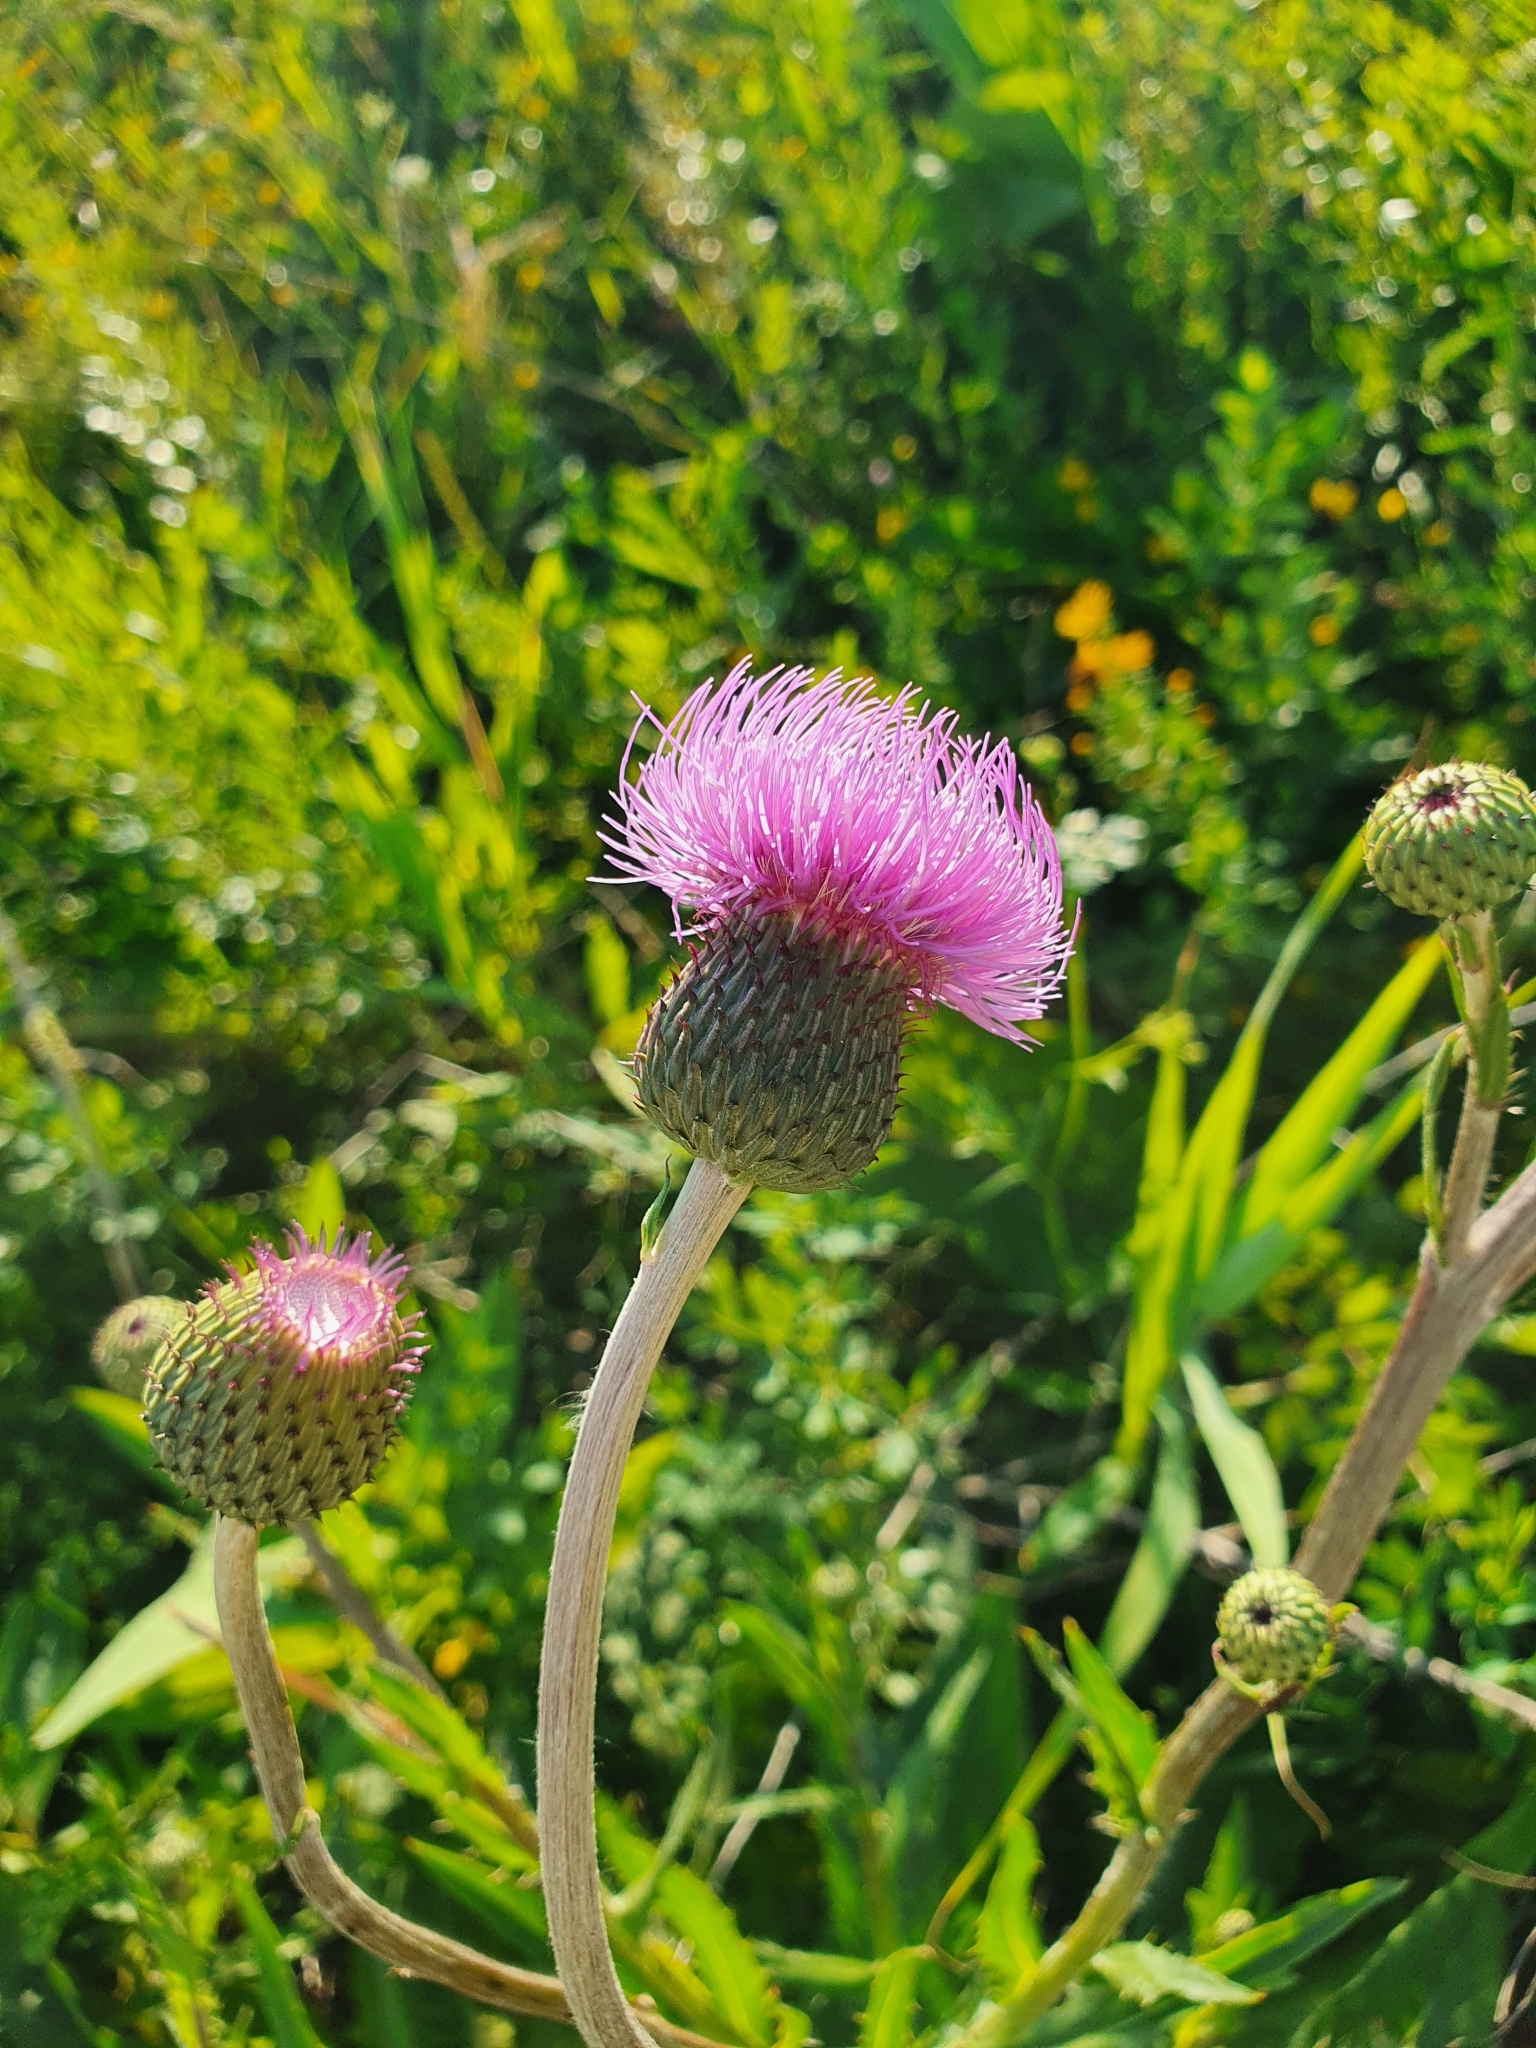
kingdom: Plantae
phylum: Tracheophyta
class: Magnoliopsida
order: Asterales
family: Asteraceae
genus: Cirsium
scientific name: Cirsium canum
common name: Queen anne's thistle
